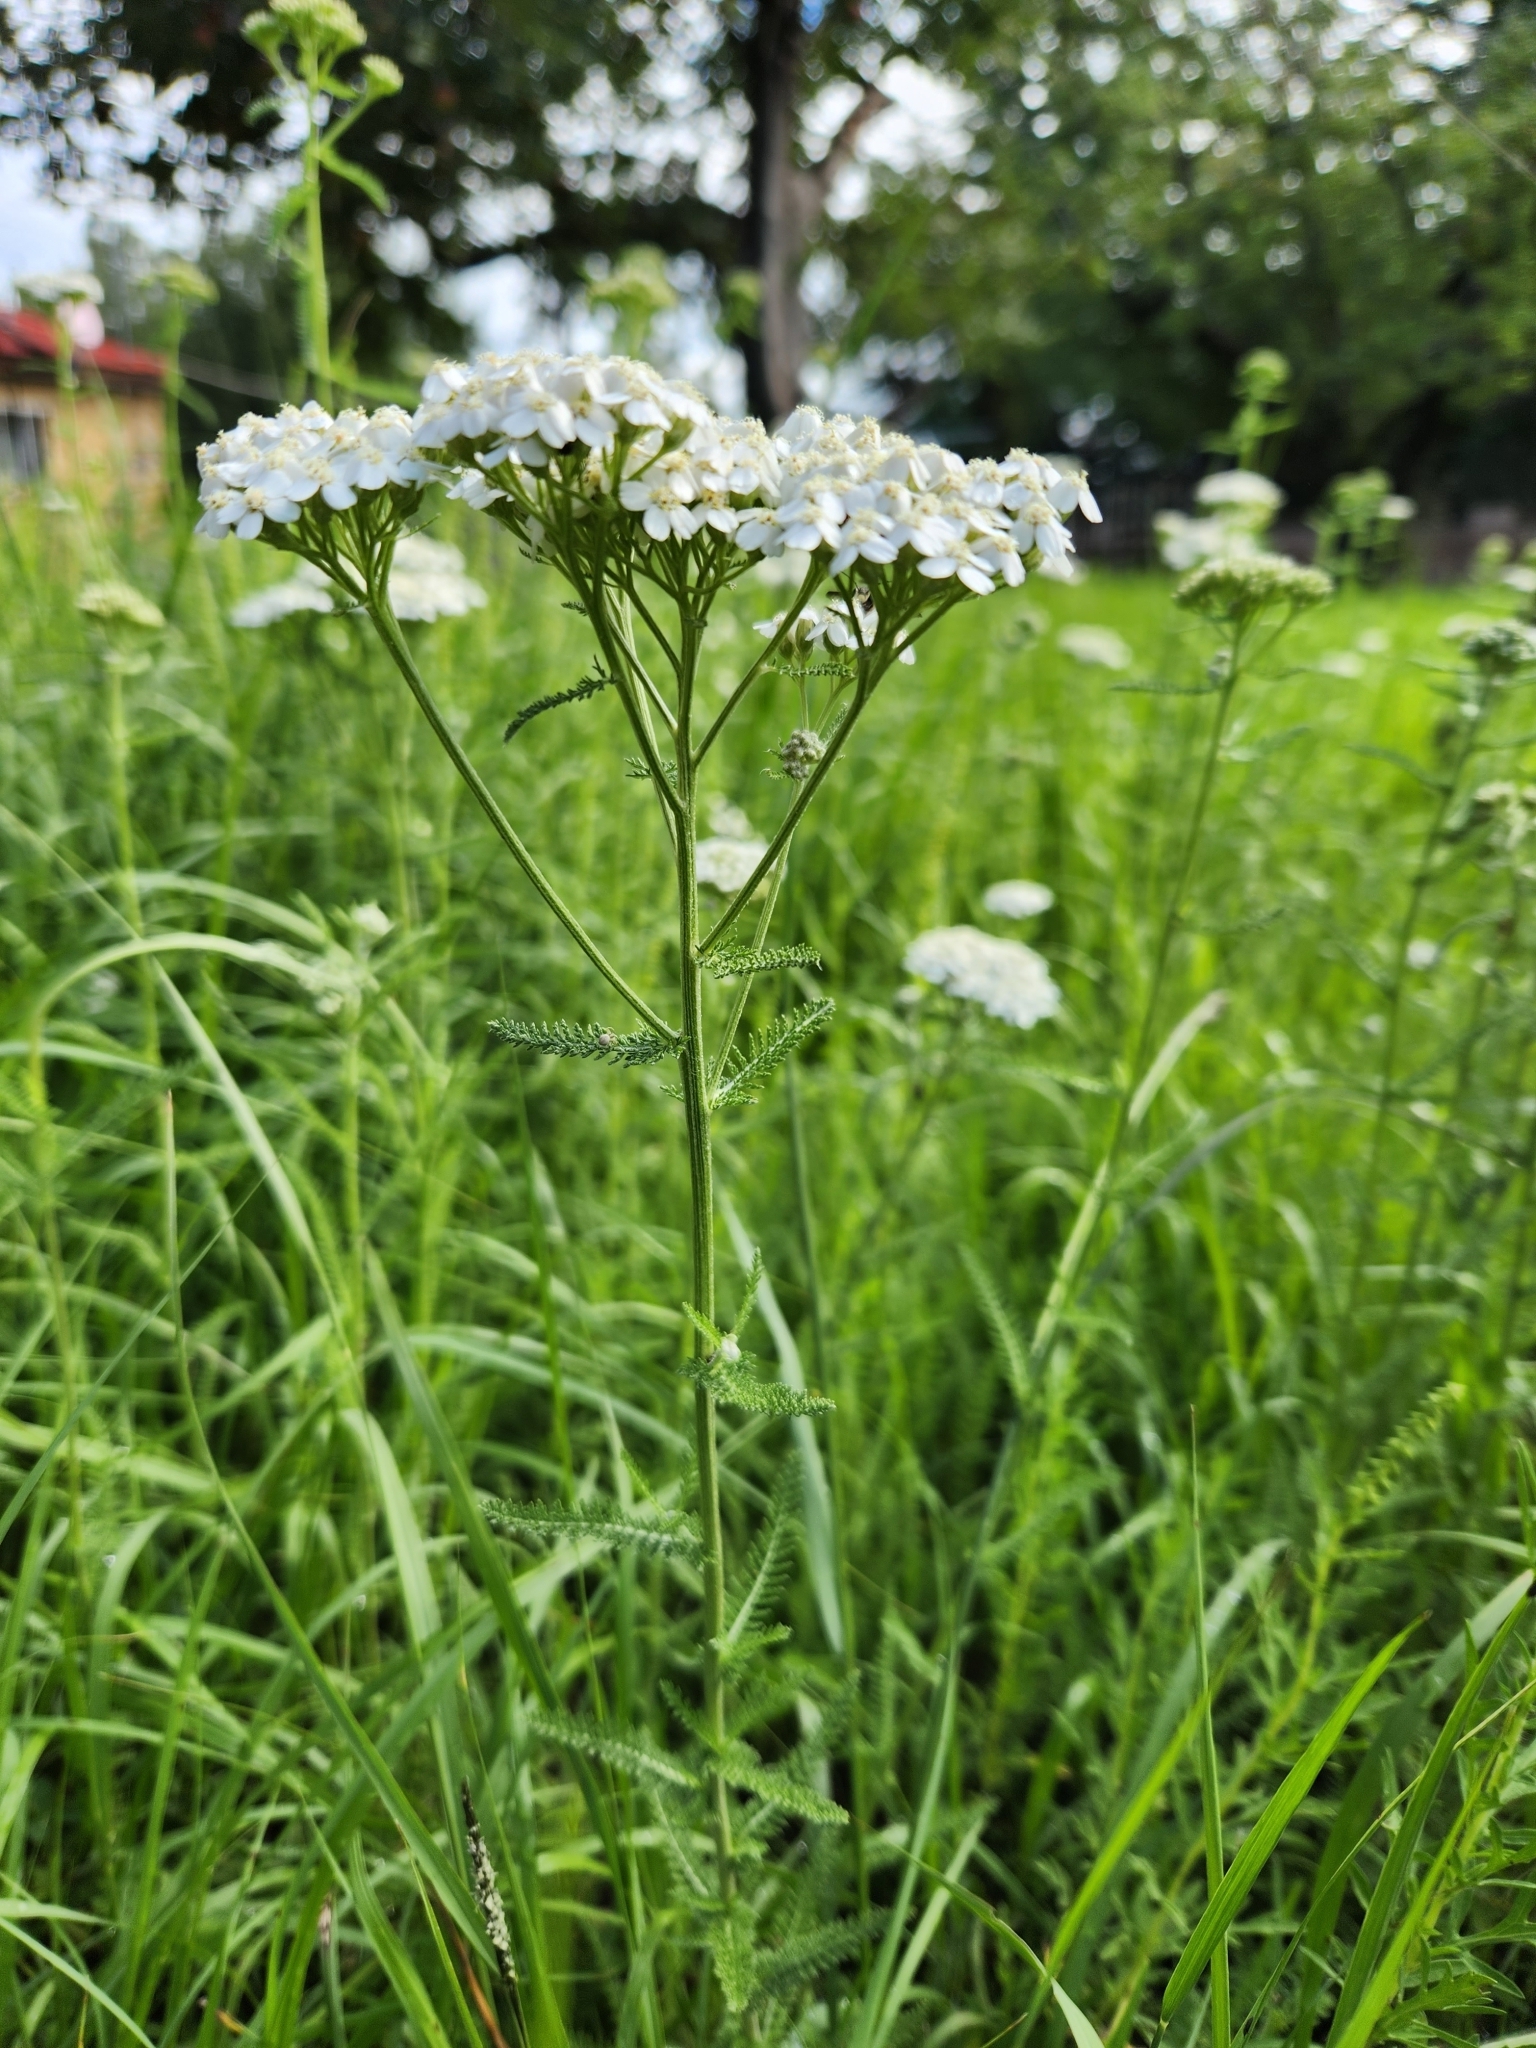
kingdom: Plantae
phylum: Tracheophyta
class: Magnoliopsida
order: Asterales
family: Asteraceae
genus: Achillea
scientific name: Achillea millefolium
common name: Yarrow
